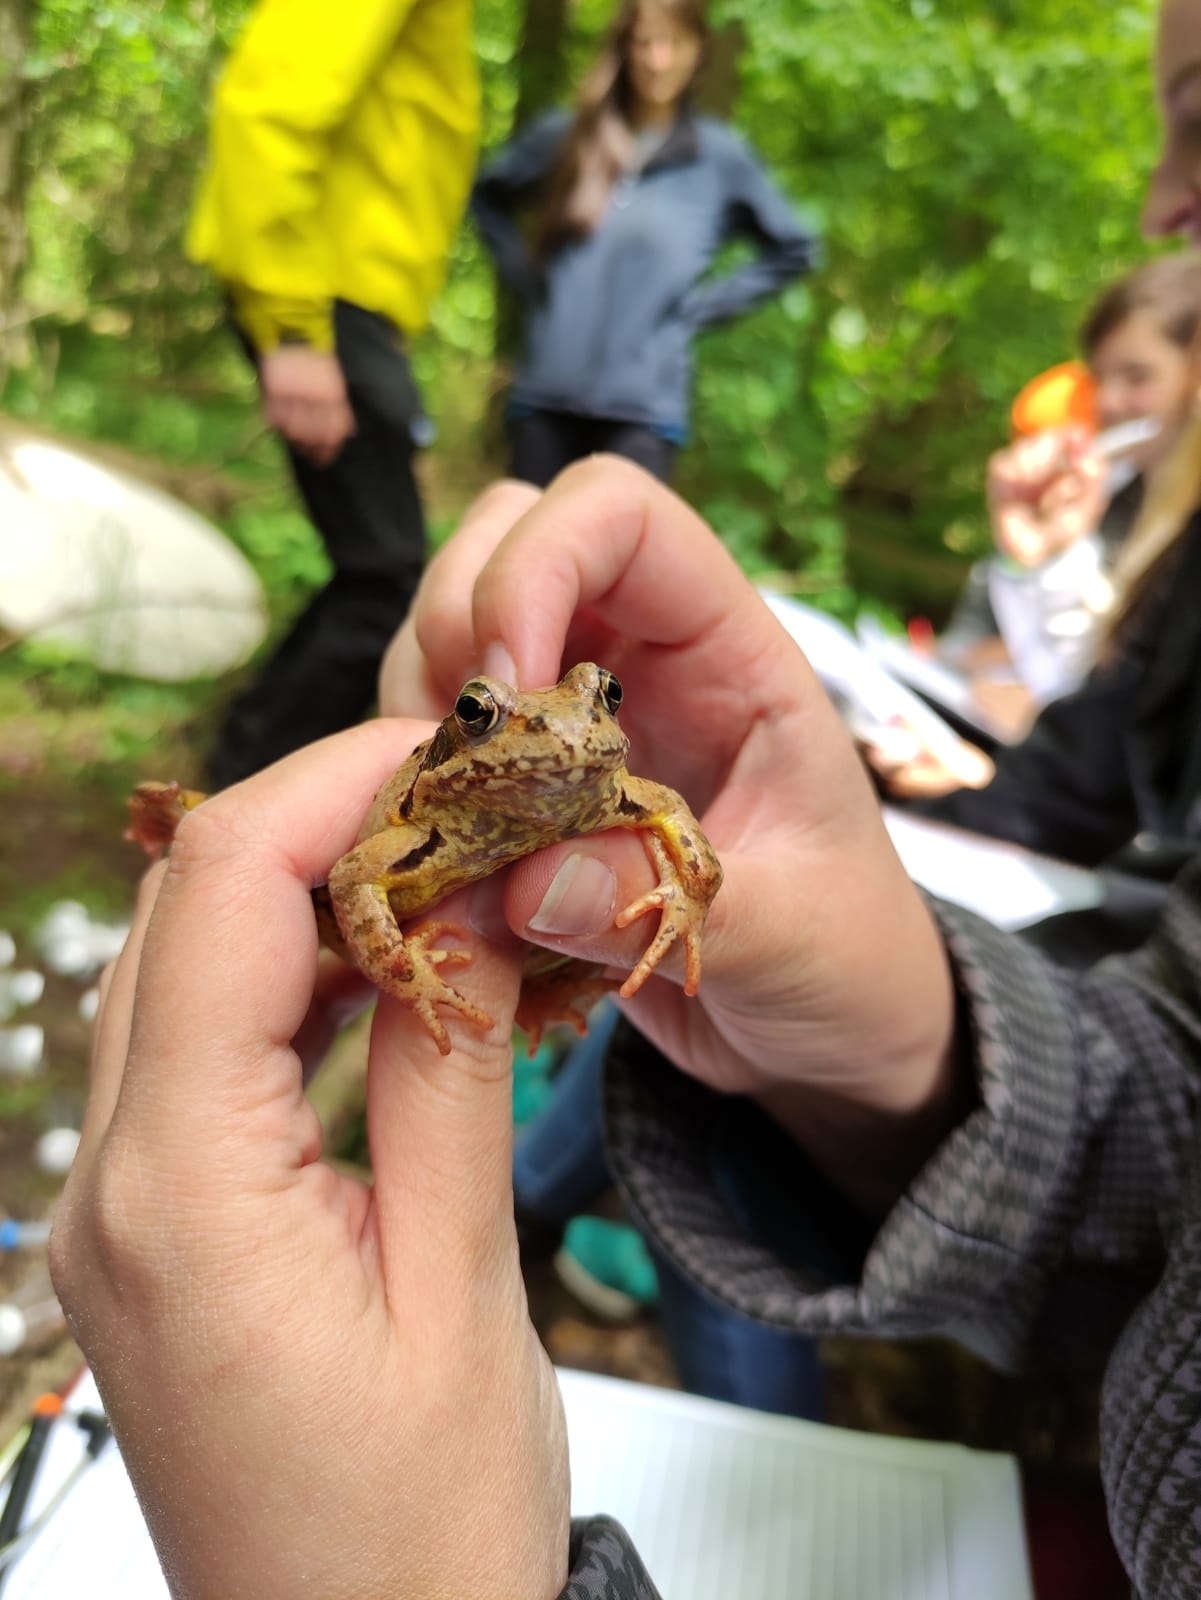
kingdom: Animalia
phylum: Chordata
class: Amphibia
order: Anura
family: Ranidae
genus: Rana
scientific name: Rana temporaria
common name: Common frog
